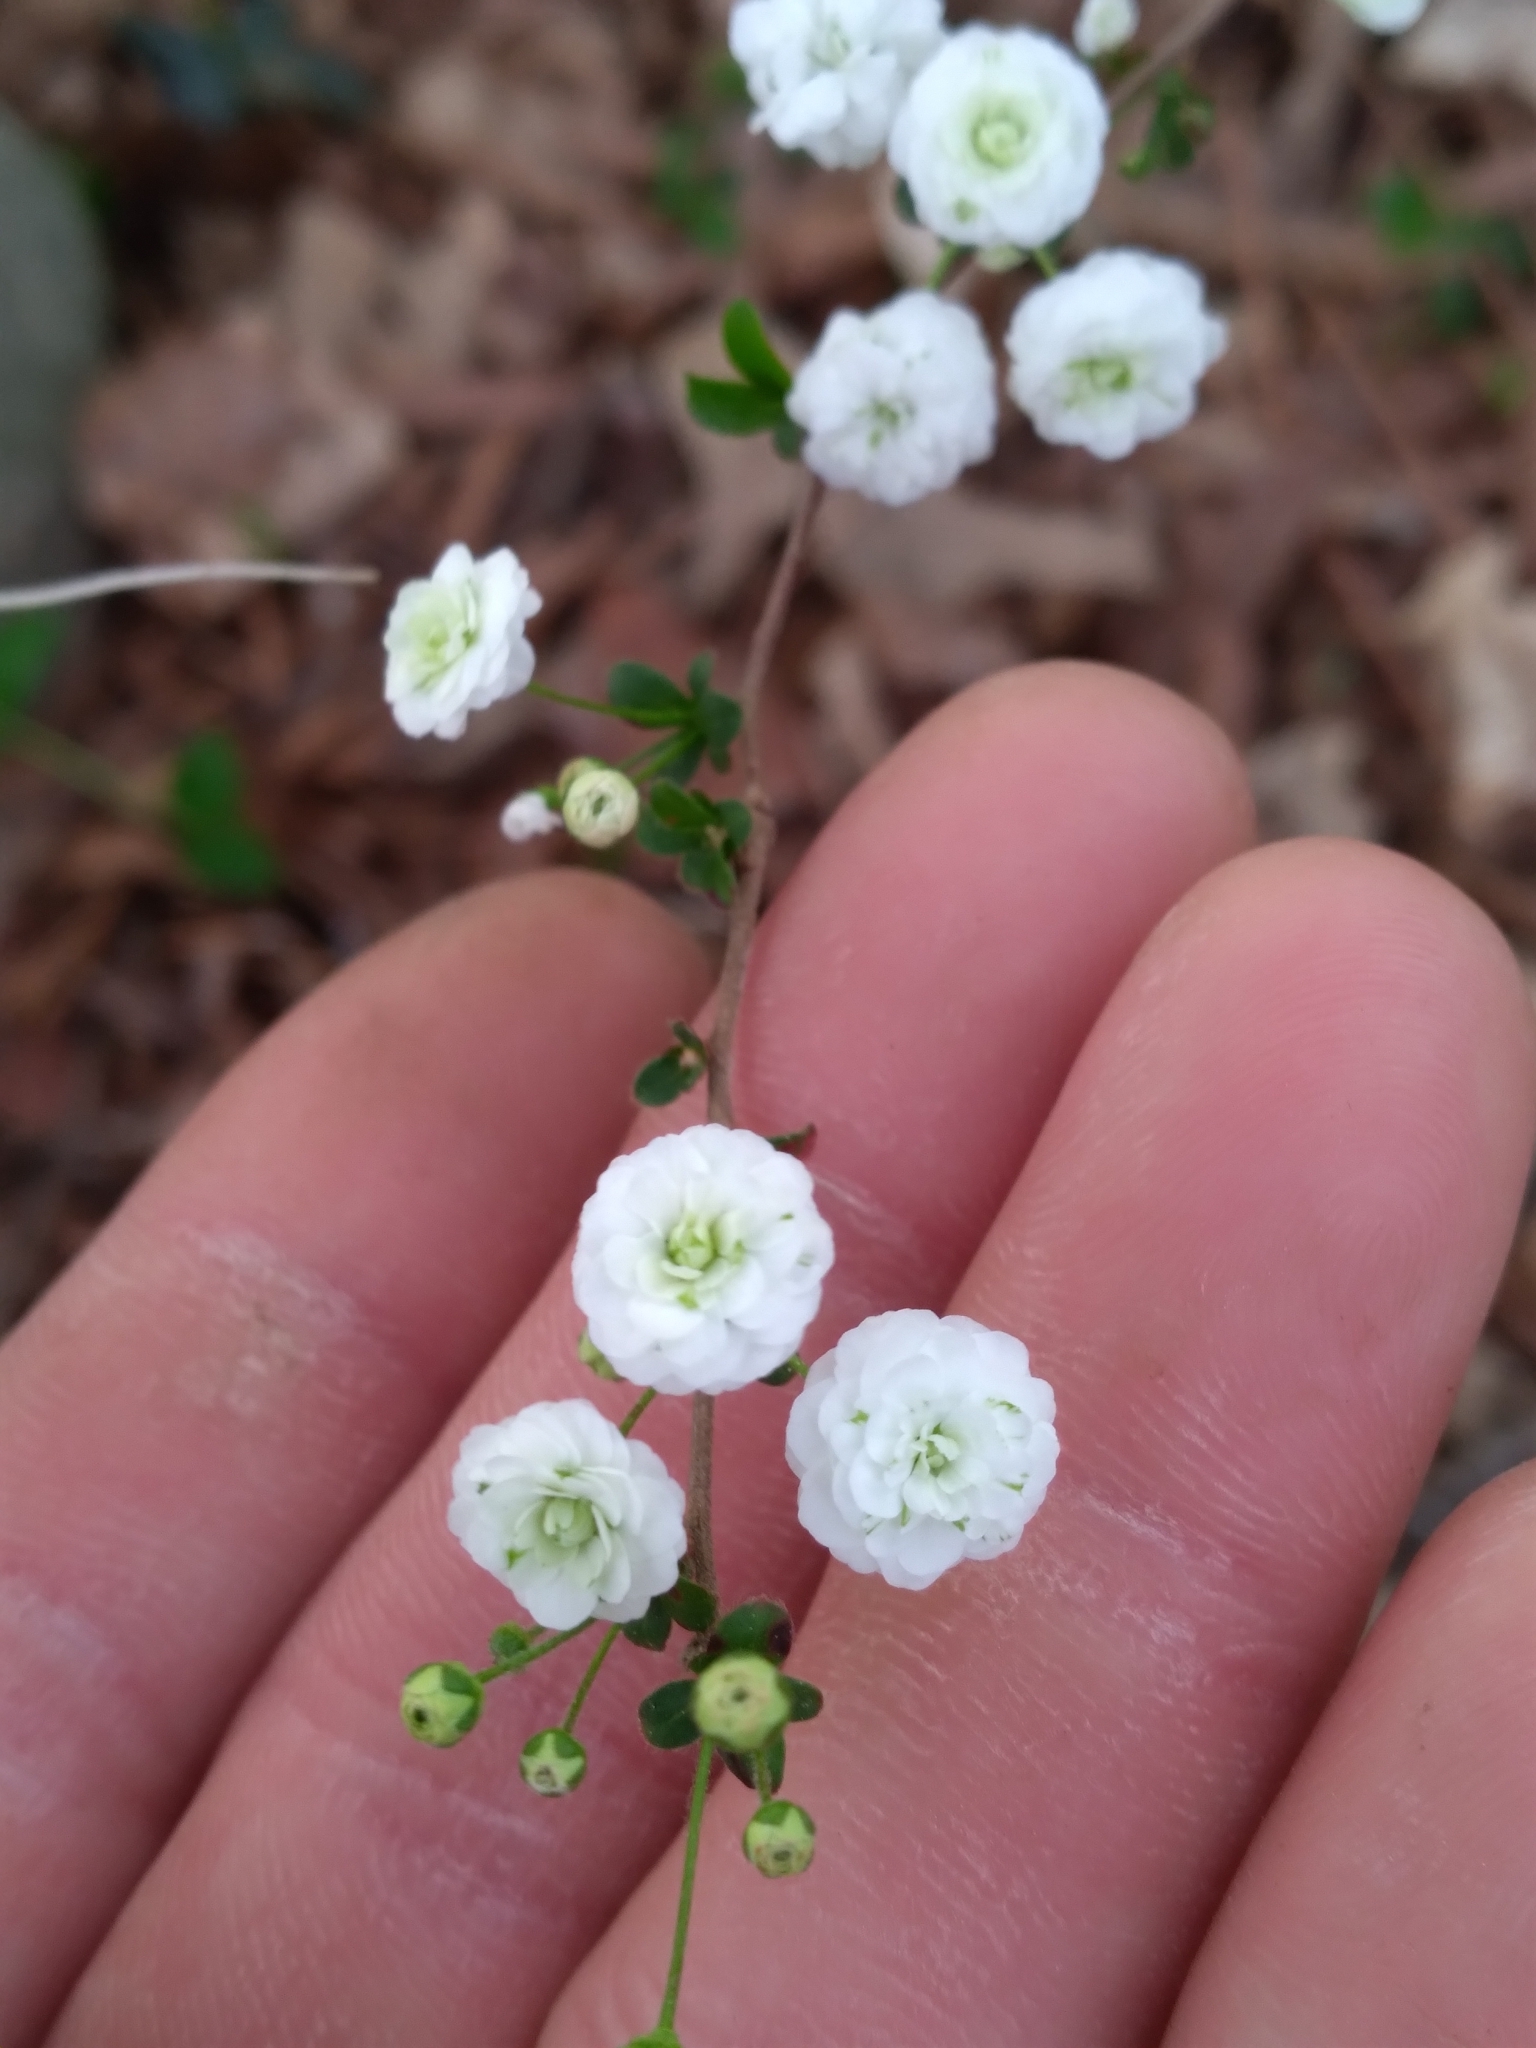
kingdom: Plantae
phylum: Tracheophyta
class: Magnoliopsida
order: Rosales
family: Rosaceae
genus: Spiraea
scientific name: Spiraea prunifolia
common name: Bridal-wreath spiraea
